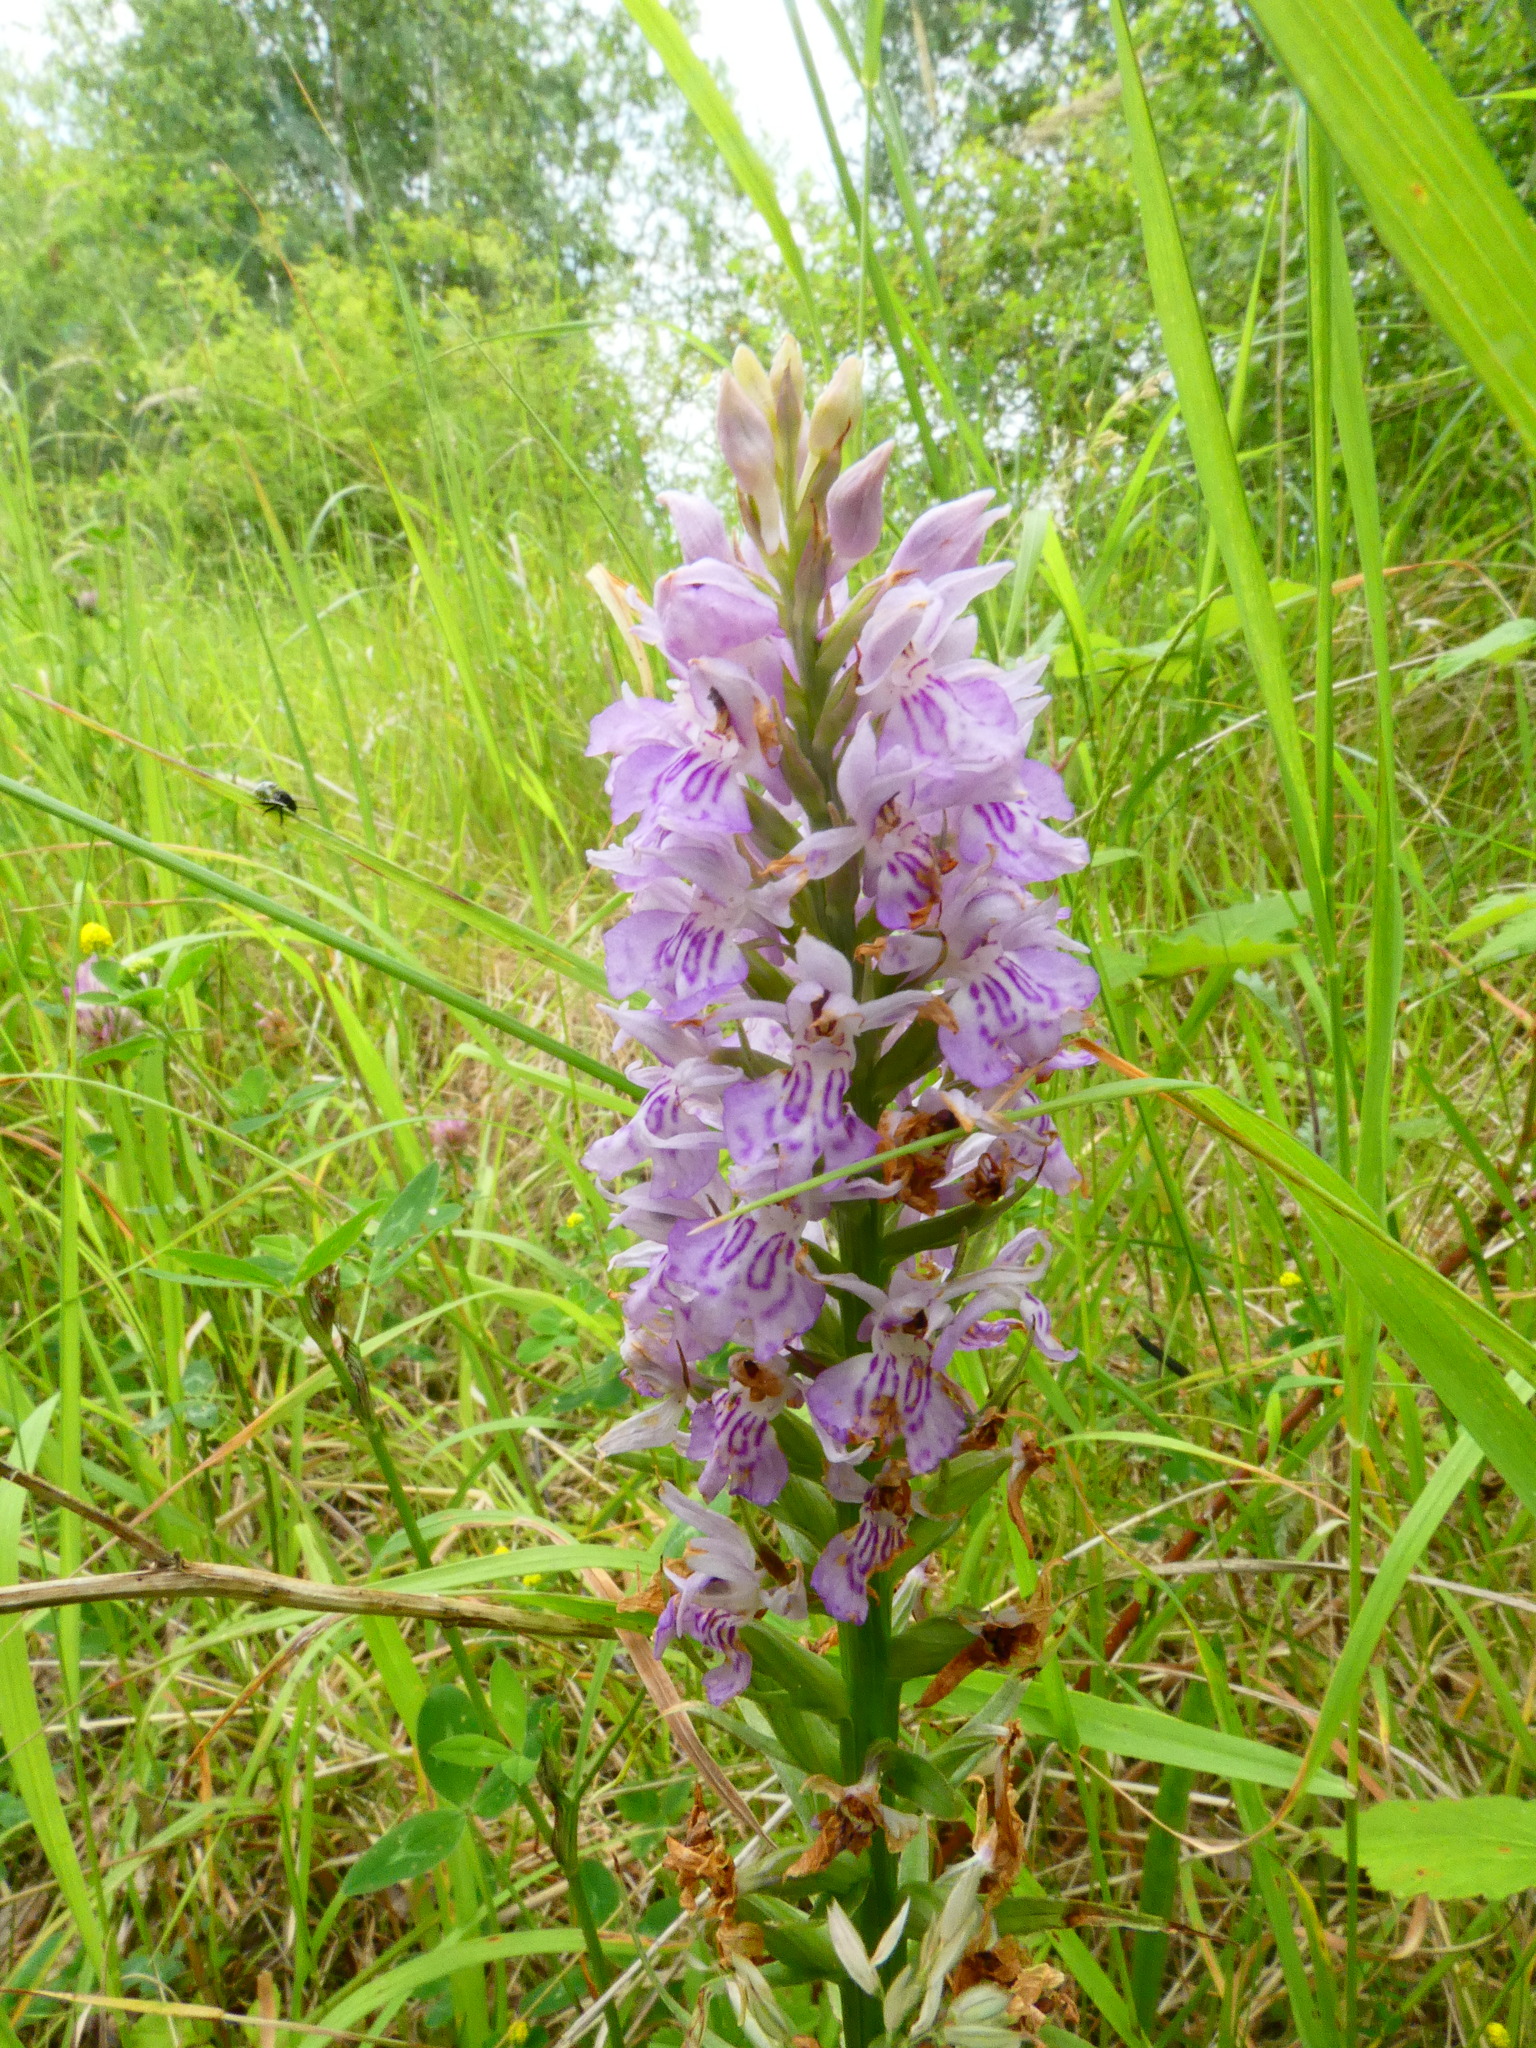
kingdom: Plantae
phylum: Tracheophyta
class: Liliopsida
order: Asparagales
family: Orchidaceae
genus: Dactylorhiza
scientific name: Dactylorhiza maculata
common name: Heath spotted-orchid
